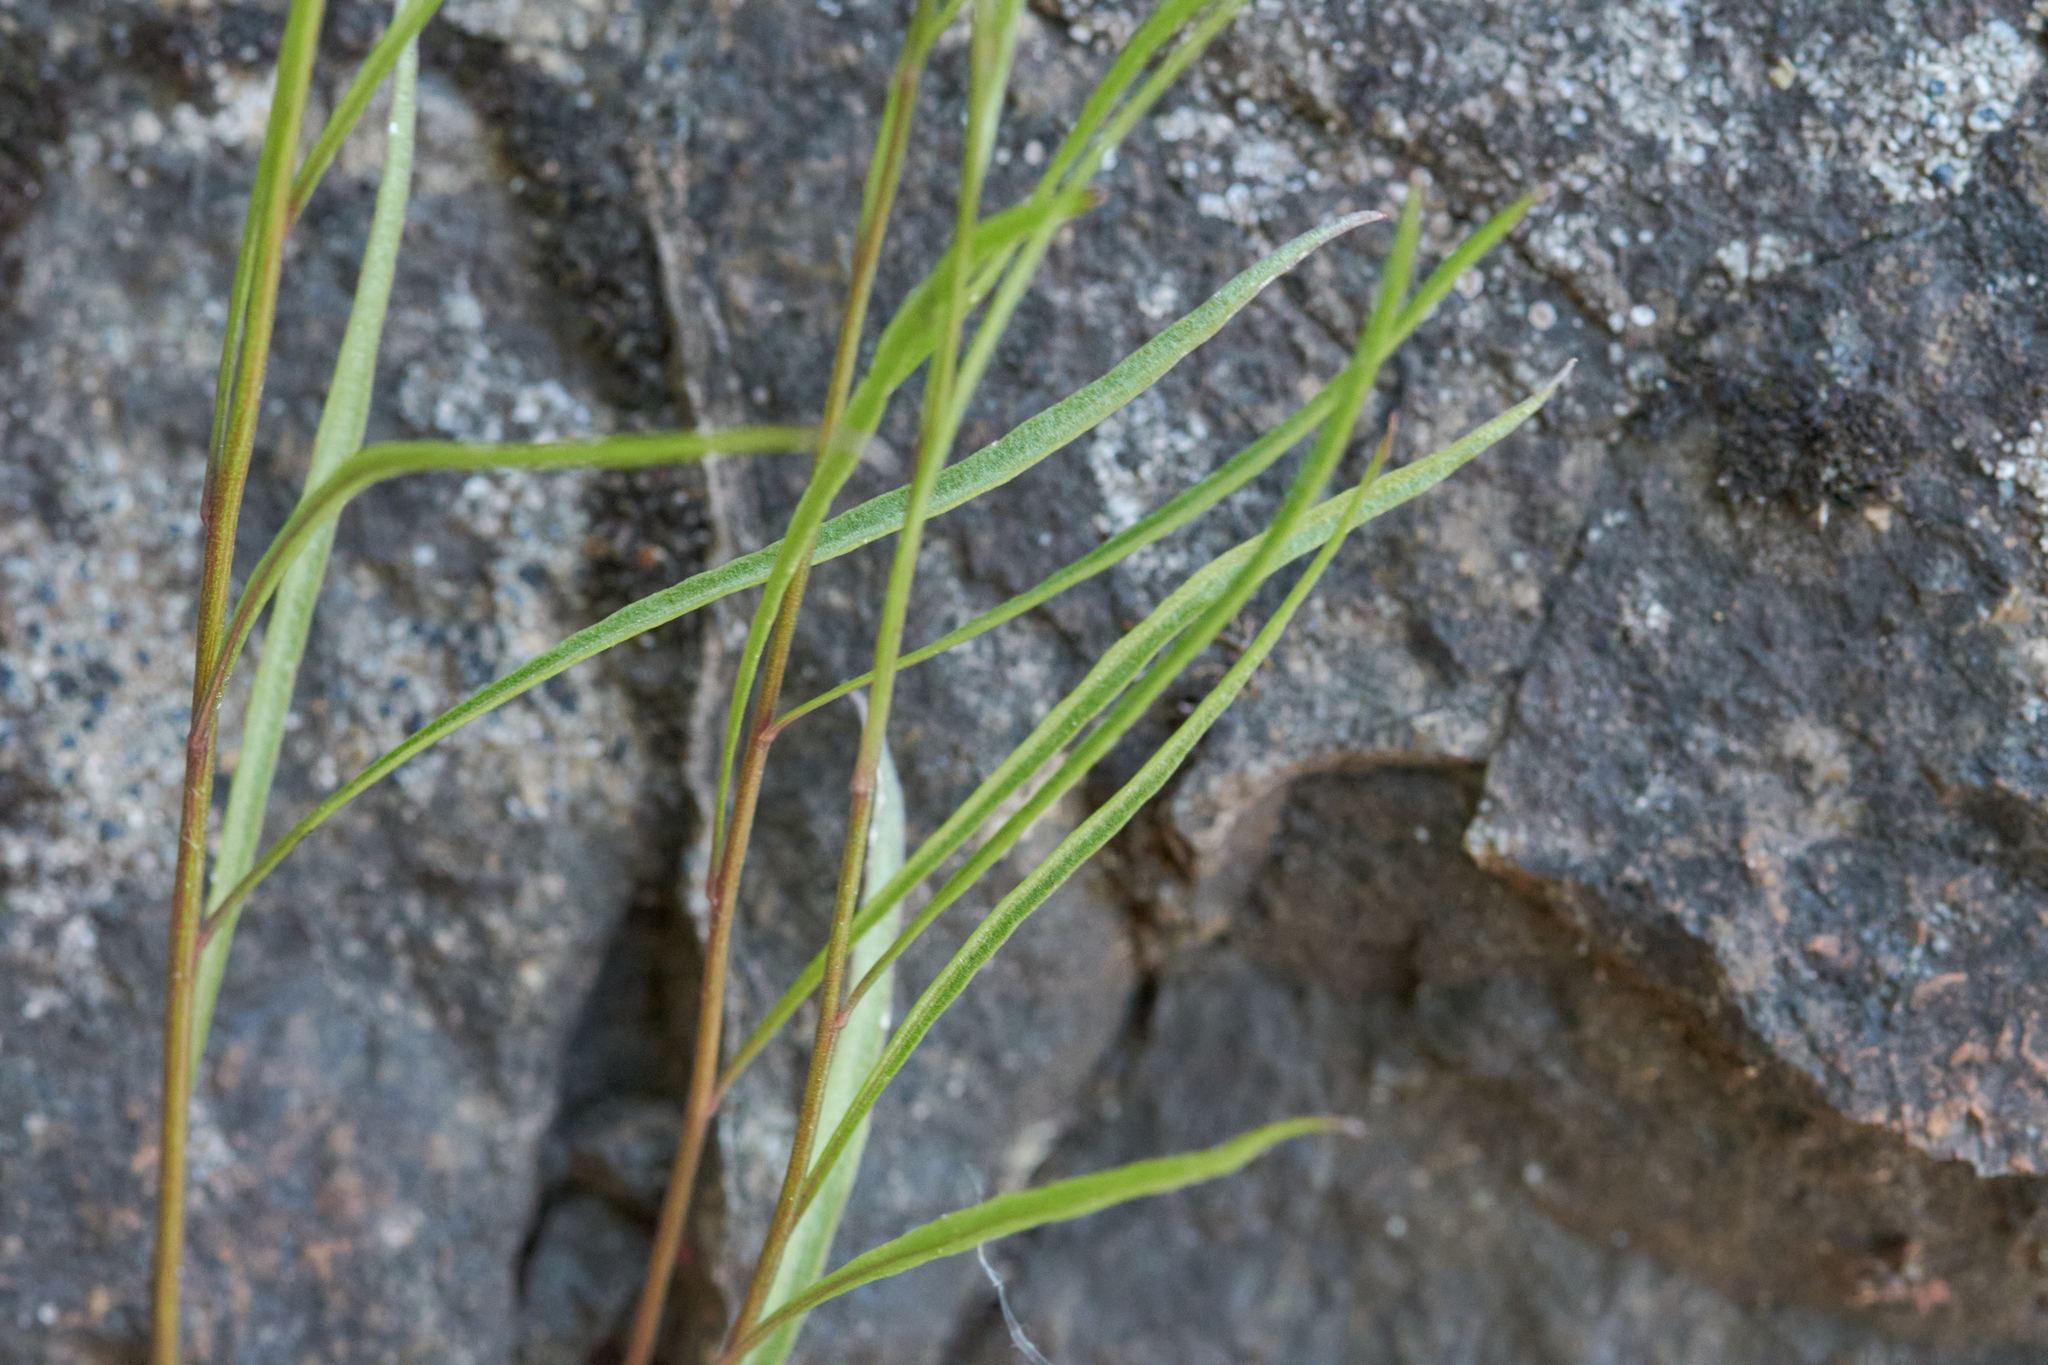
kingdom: Plantae
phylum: Tracheophyta
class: Magnoliopsida
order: Asterales
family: Campanulaceae
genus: Campanula
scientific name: Campanula giesekiana
